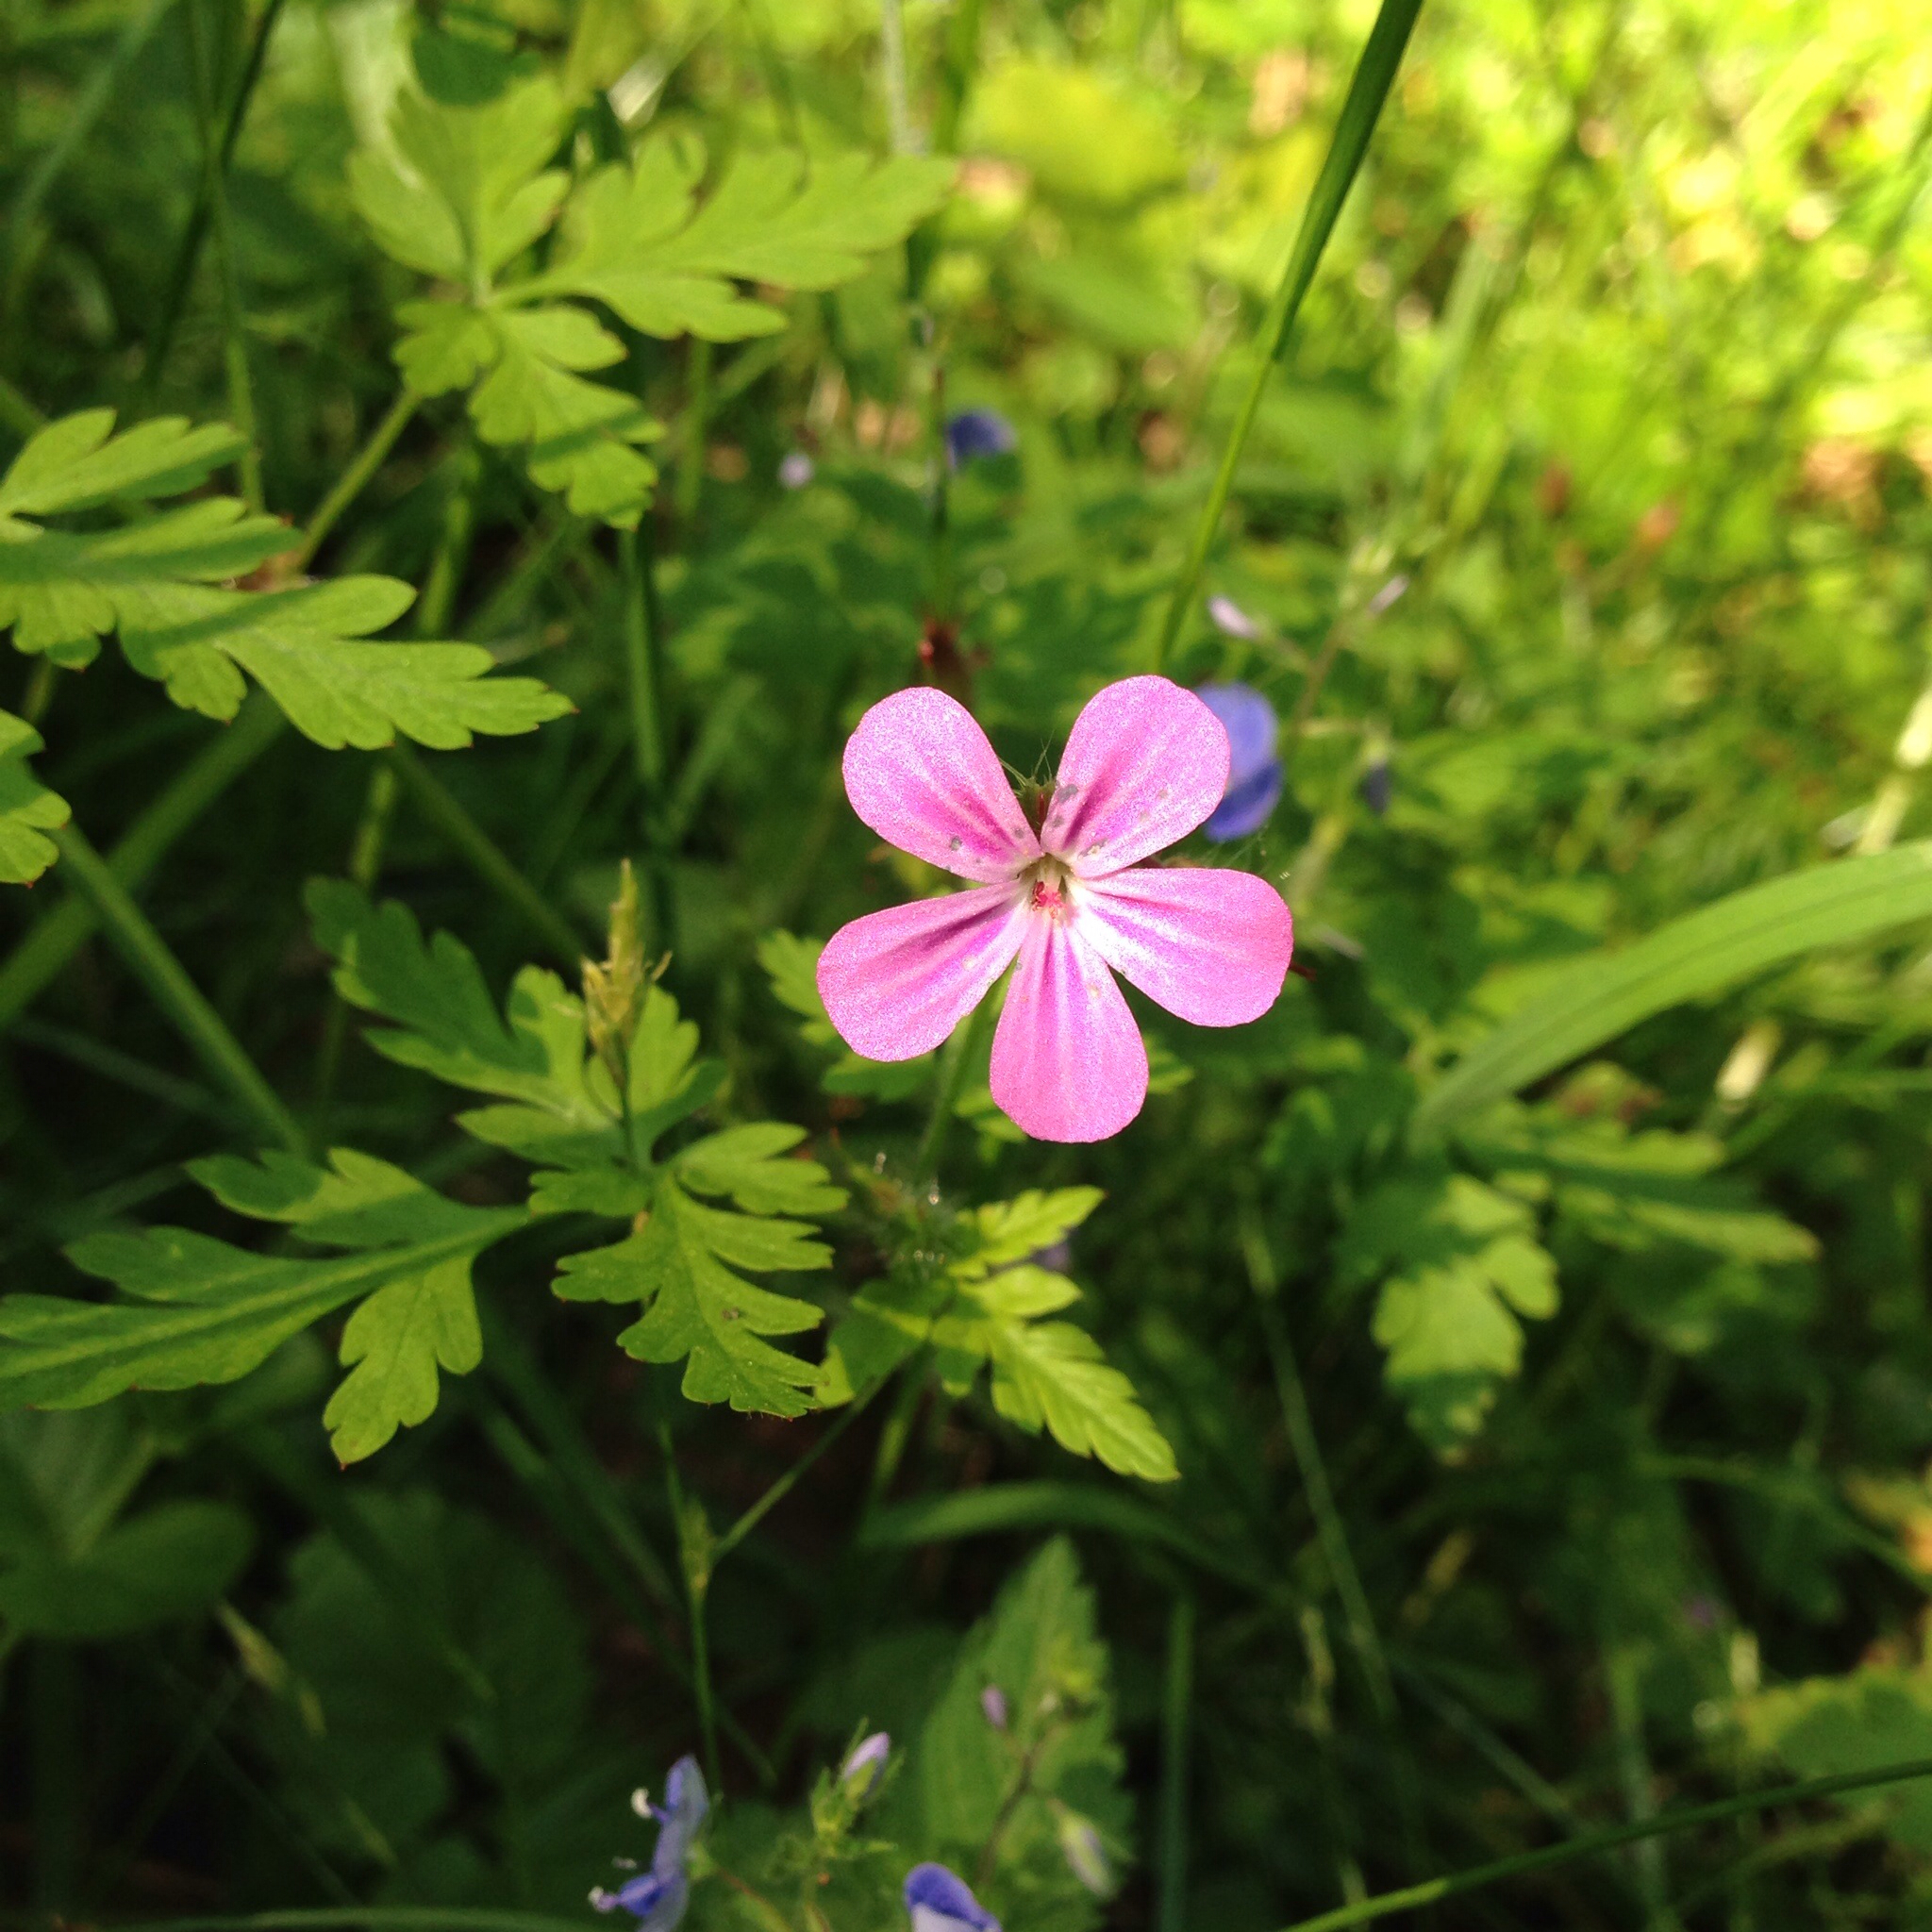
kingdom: Plantae
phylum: Tracheophyta
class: Magnoliopsida
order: Geraniales
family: Geraniaceae
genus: Geranium
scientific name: Geranium robertianum
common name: Herb-robert
